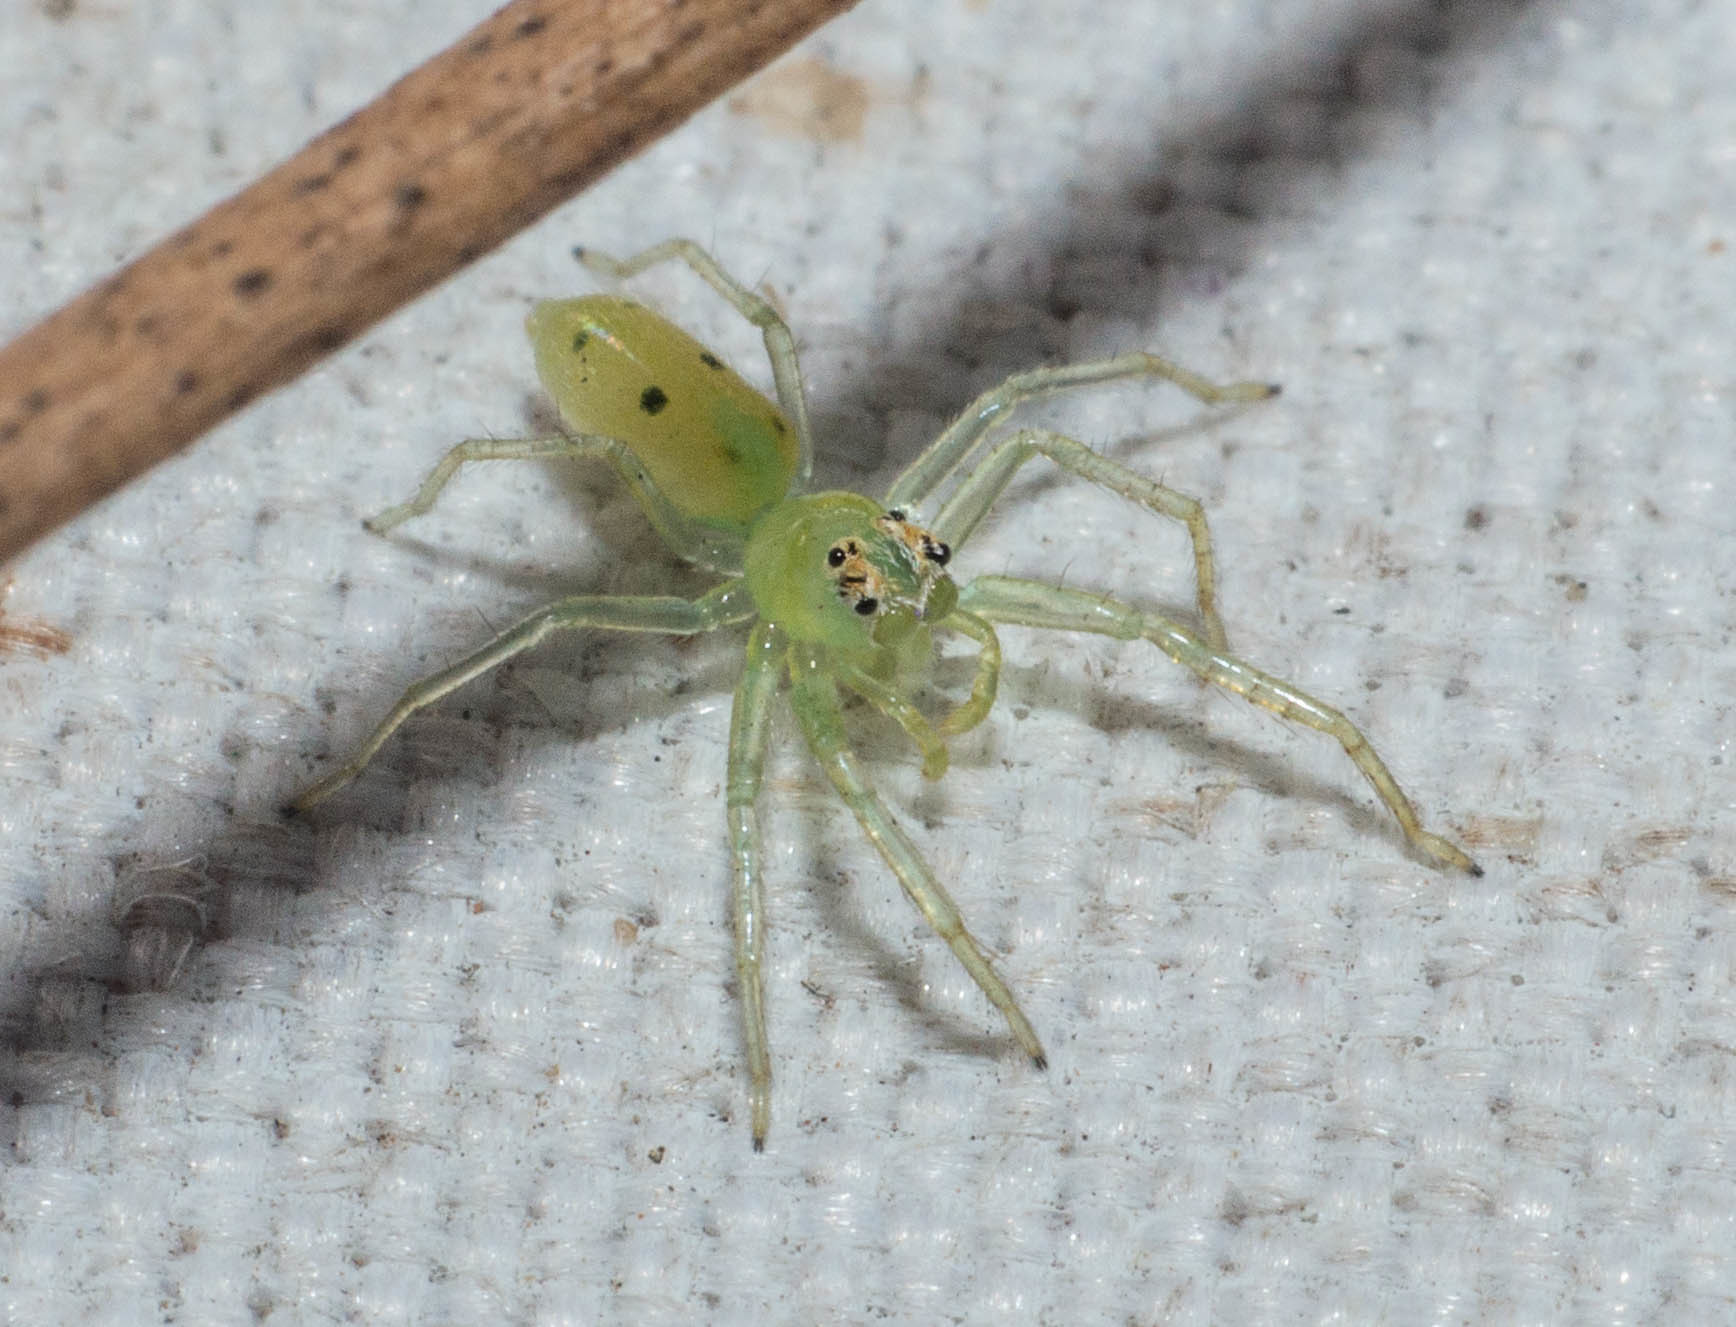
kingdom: Animalia
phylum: Arthropoda
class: Arachnida
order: Araneae
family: Salticidae
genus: Lyssomanes
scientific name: Lyssomanes pauper
